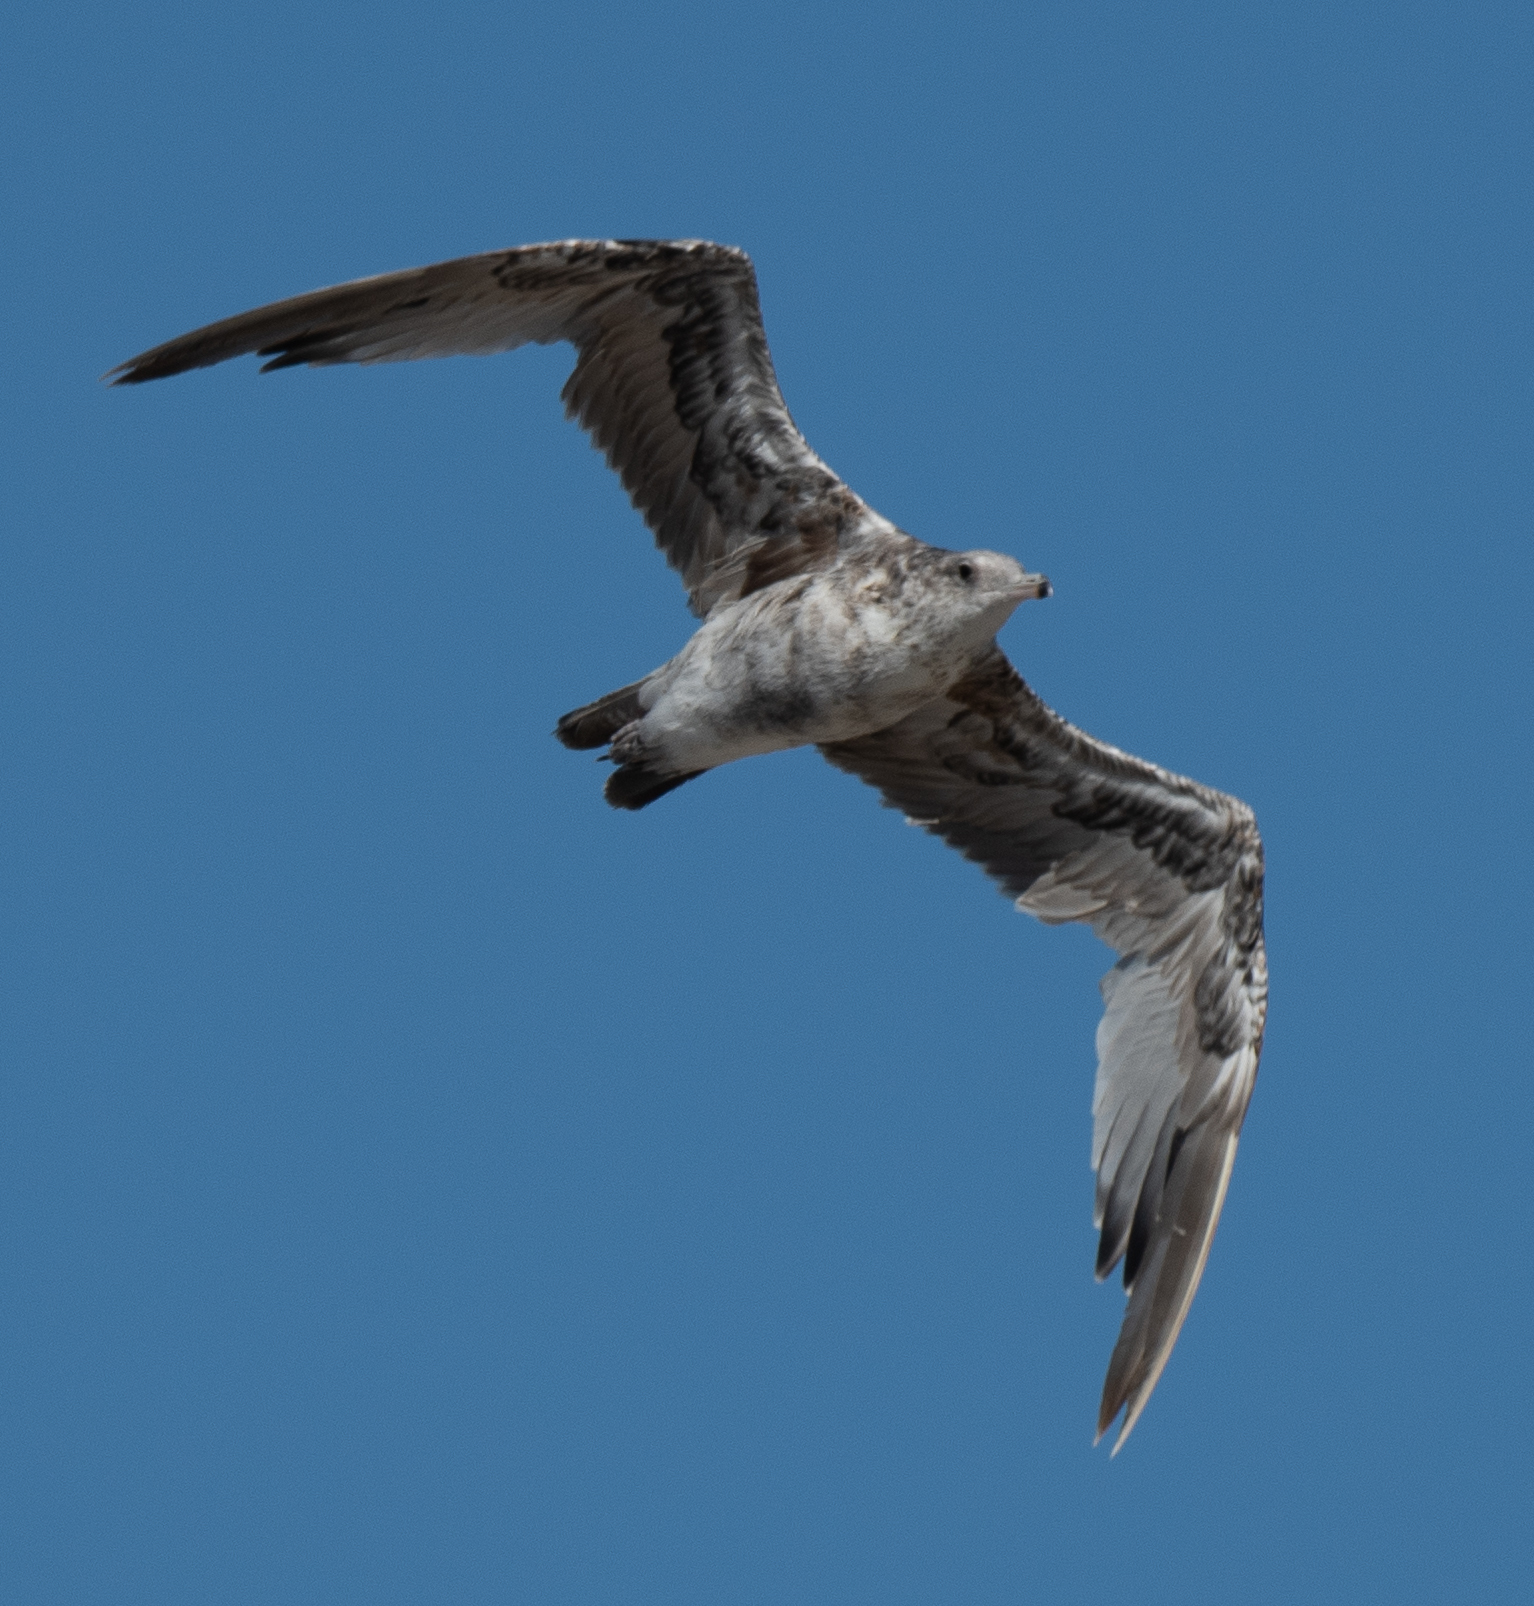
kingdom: Animalia
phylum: Chordata
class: Aves
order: Charadriiformes
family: Laridae
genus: Larus
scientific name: Larus californicus
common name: California gull
